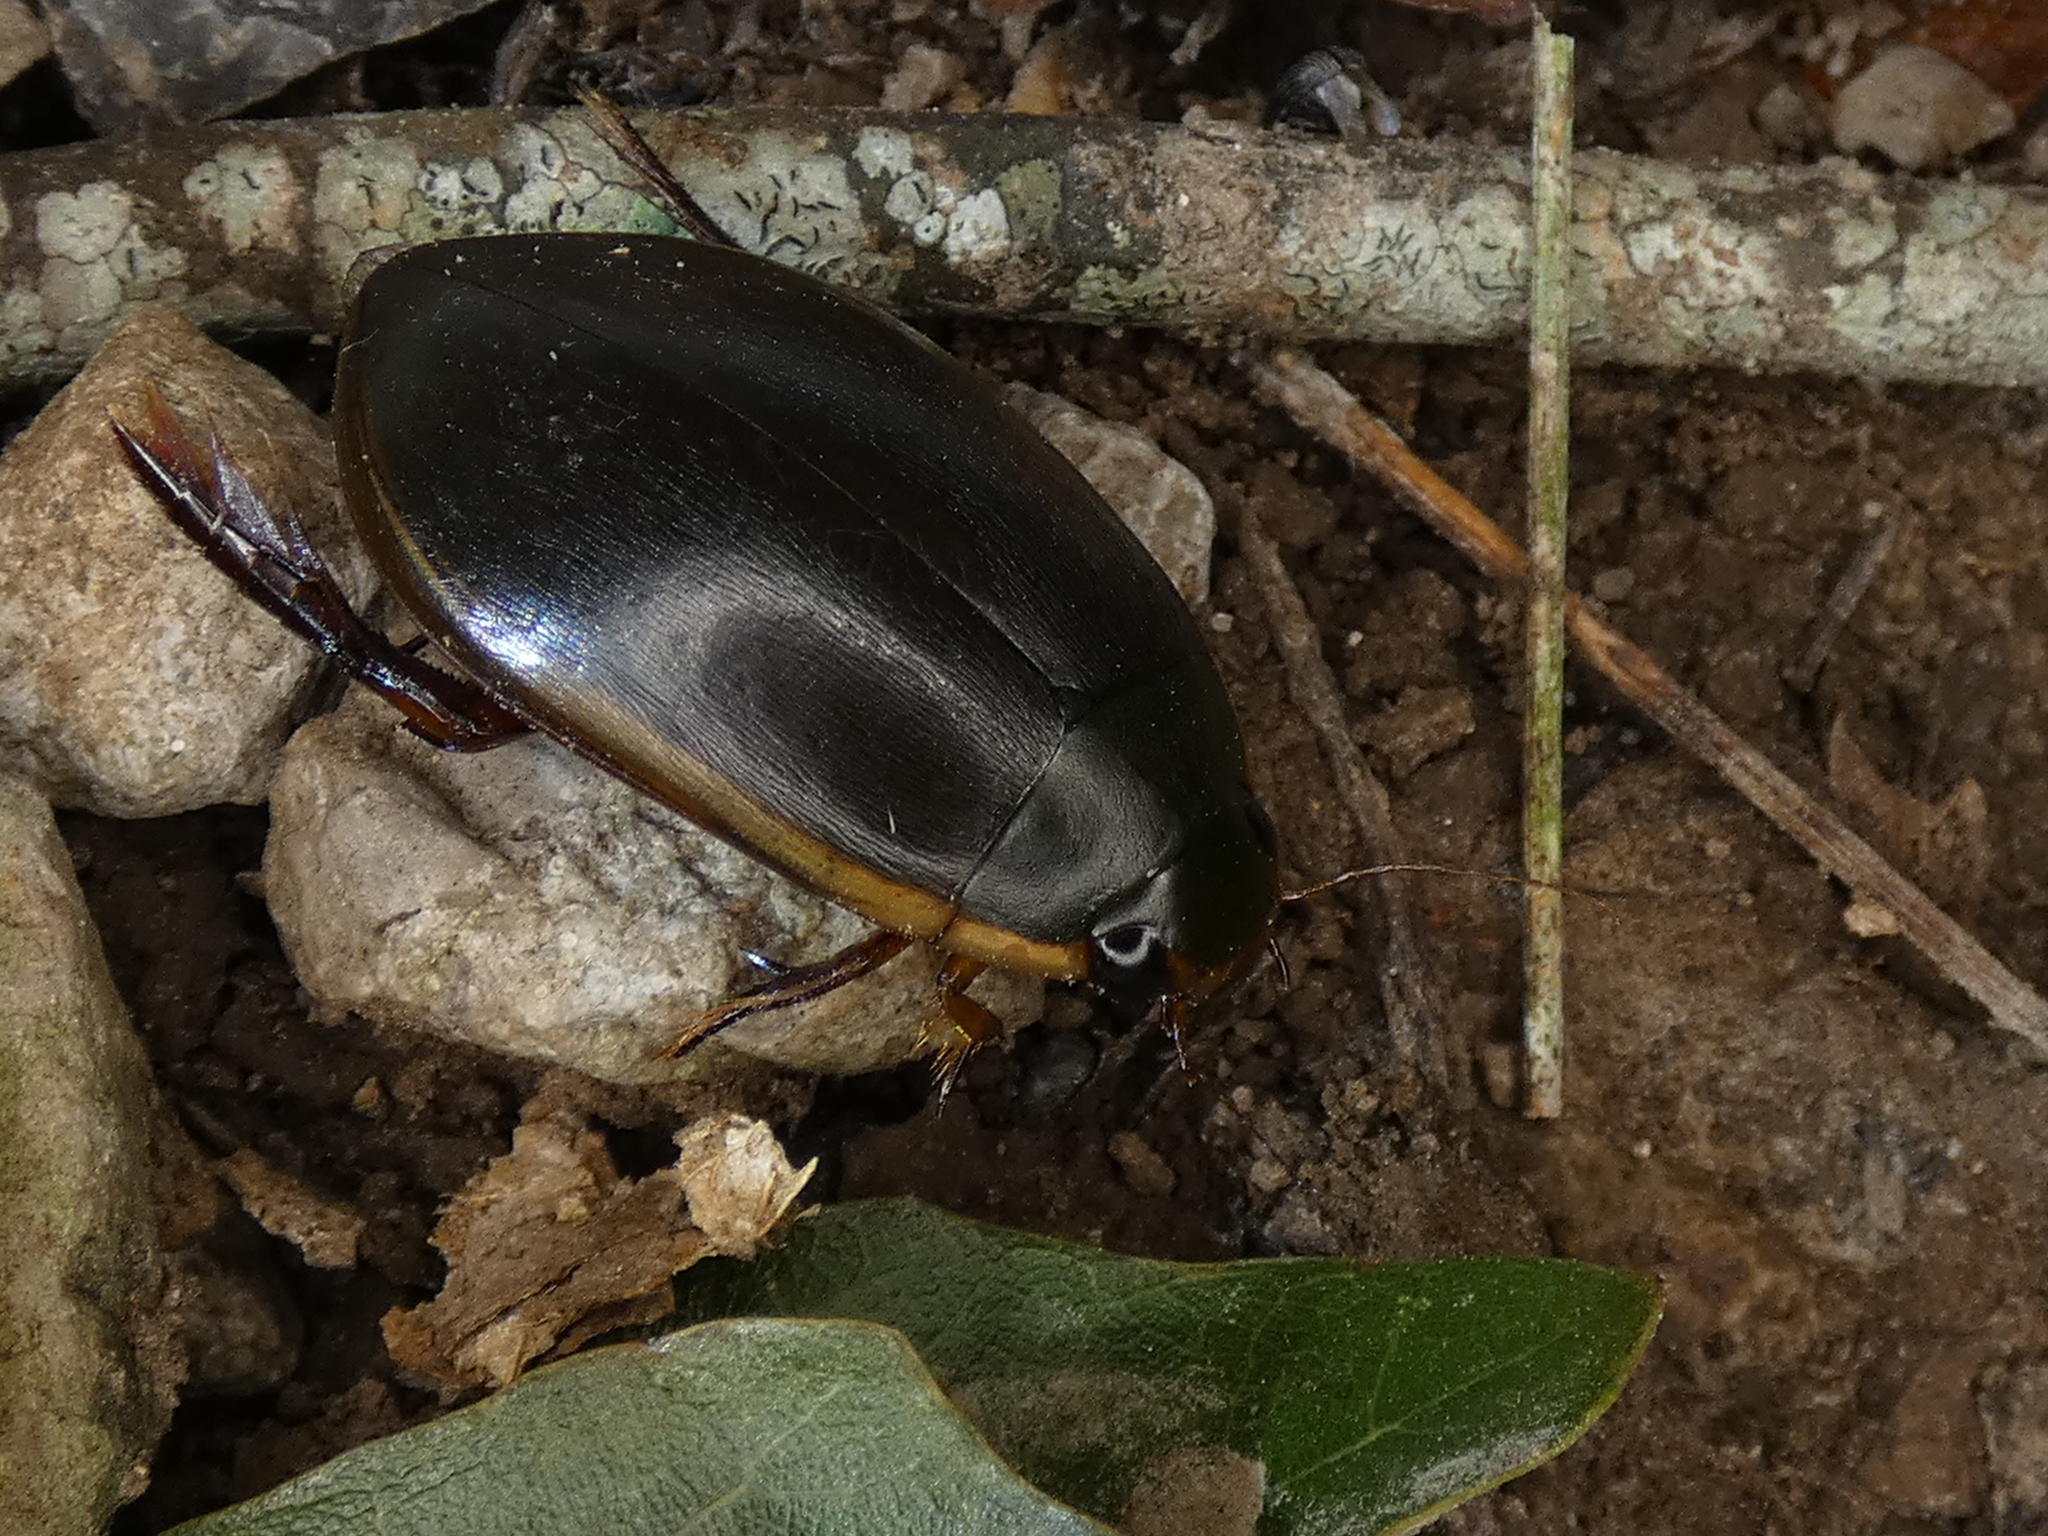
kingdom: Animalia
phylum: Arthropoda
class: Insecta
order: Coleoptera
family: Dytiscidae
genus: Cybister
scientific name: Cybister fimbriolatus
